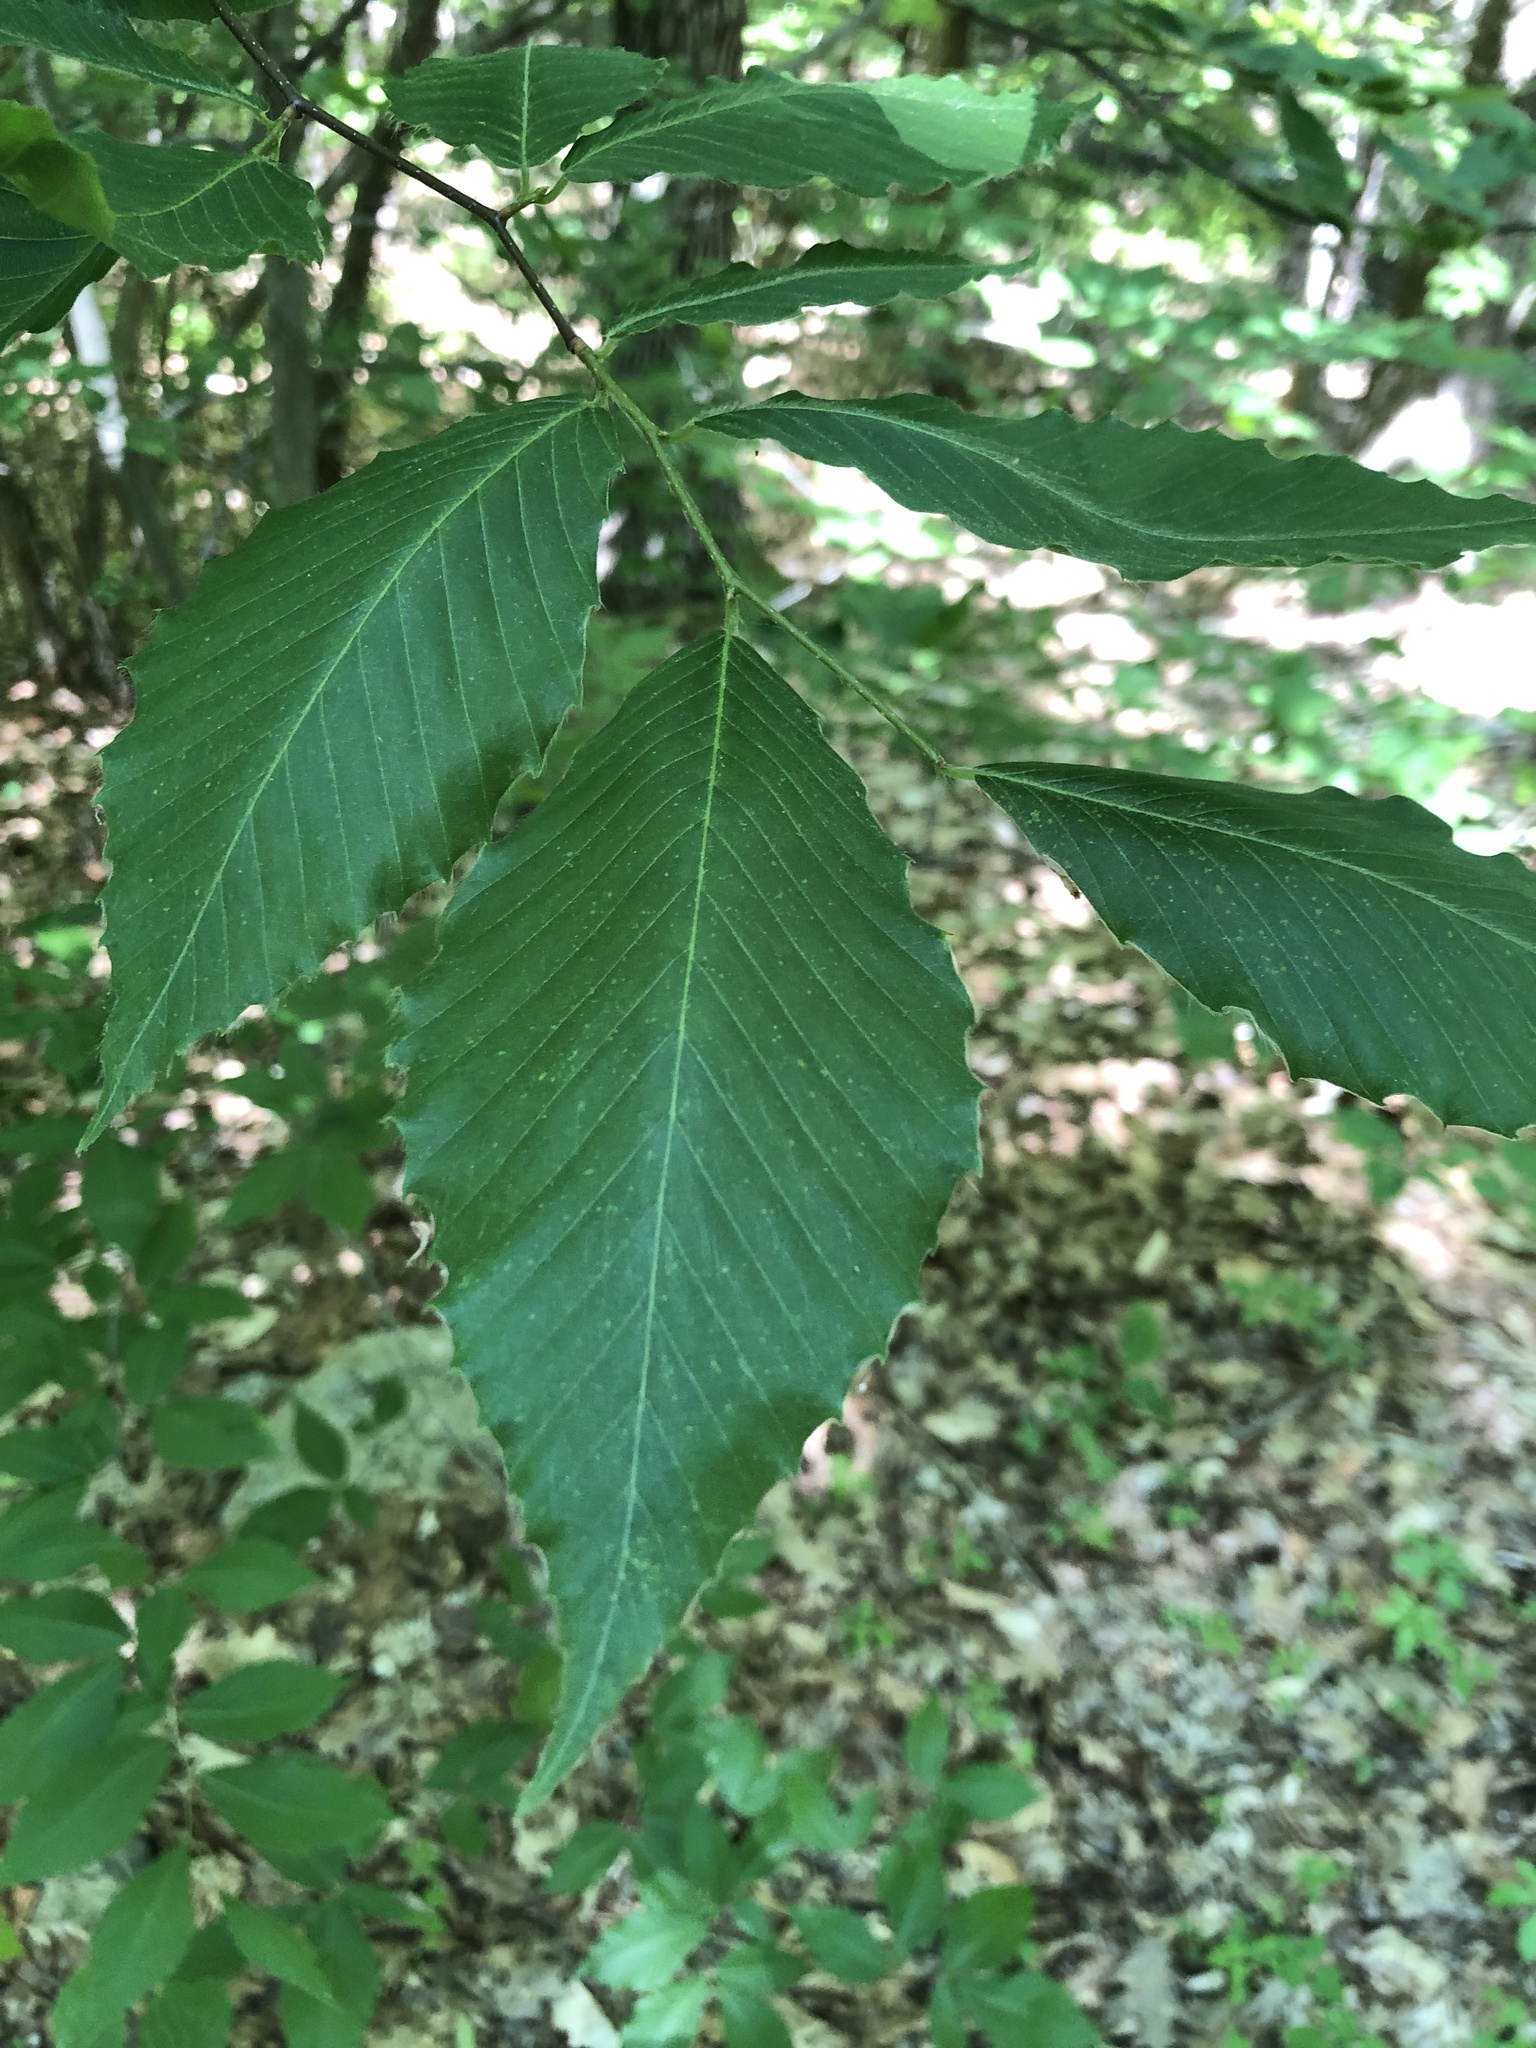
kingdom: Plantae
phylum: Tracheophyta
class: Magnoliopsida
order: Fagales
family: Fagaceae
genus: Fagus
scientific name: Fagus grandifolia
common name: American beech
